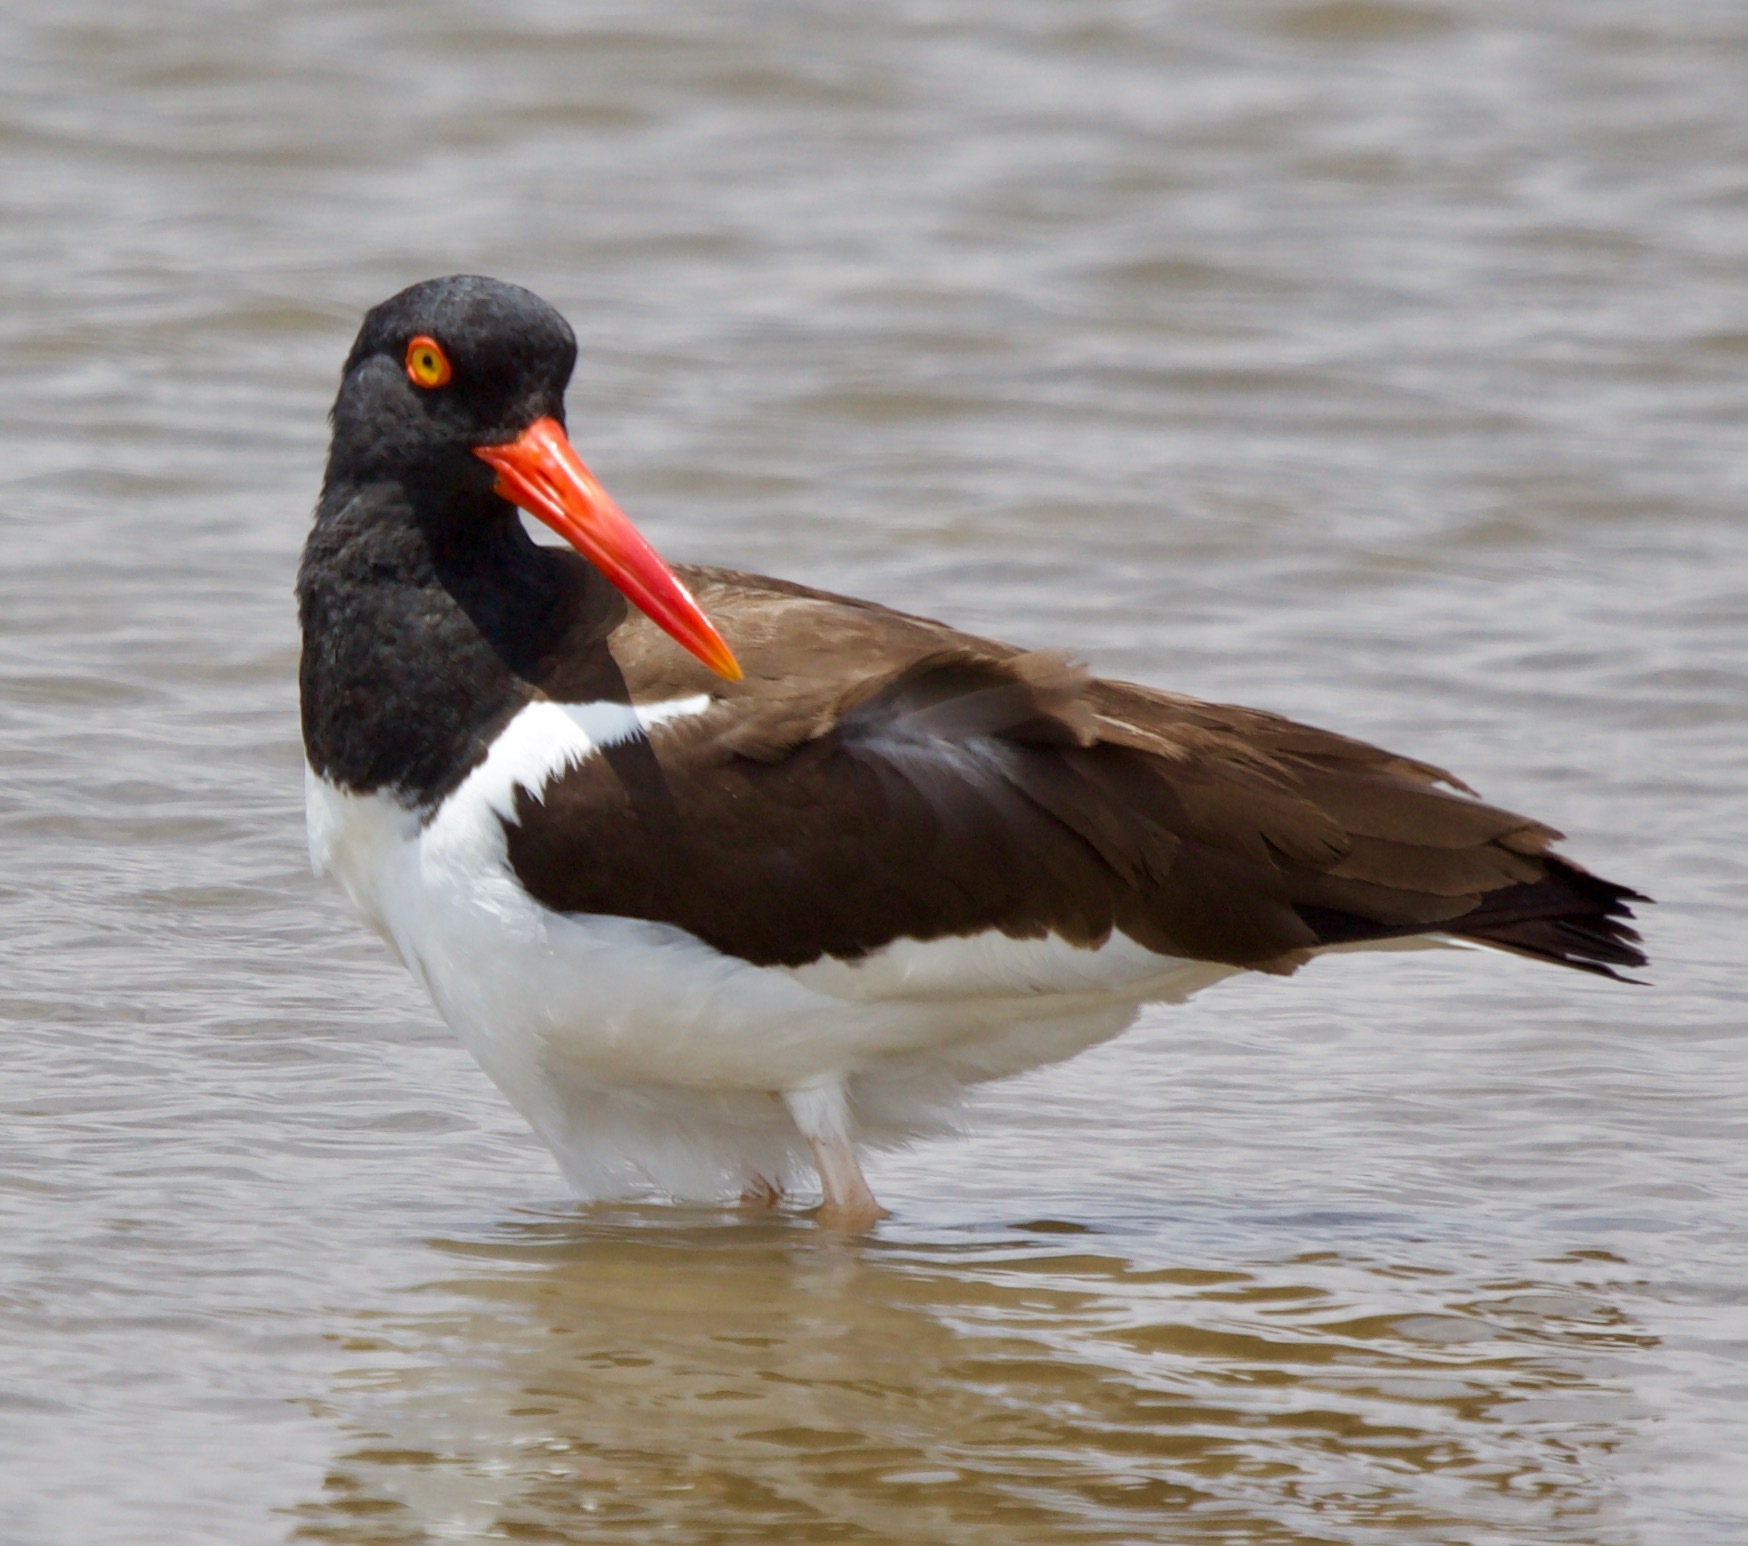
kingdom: Animalia
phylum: Chordata
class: Aves
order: Charadriiformes
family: Haematopodidae
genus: Haematopus
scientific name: Haematopus palliatus
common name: American oystercatcher
